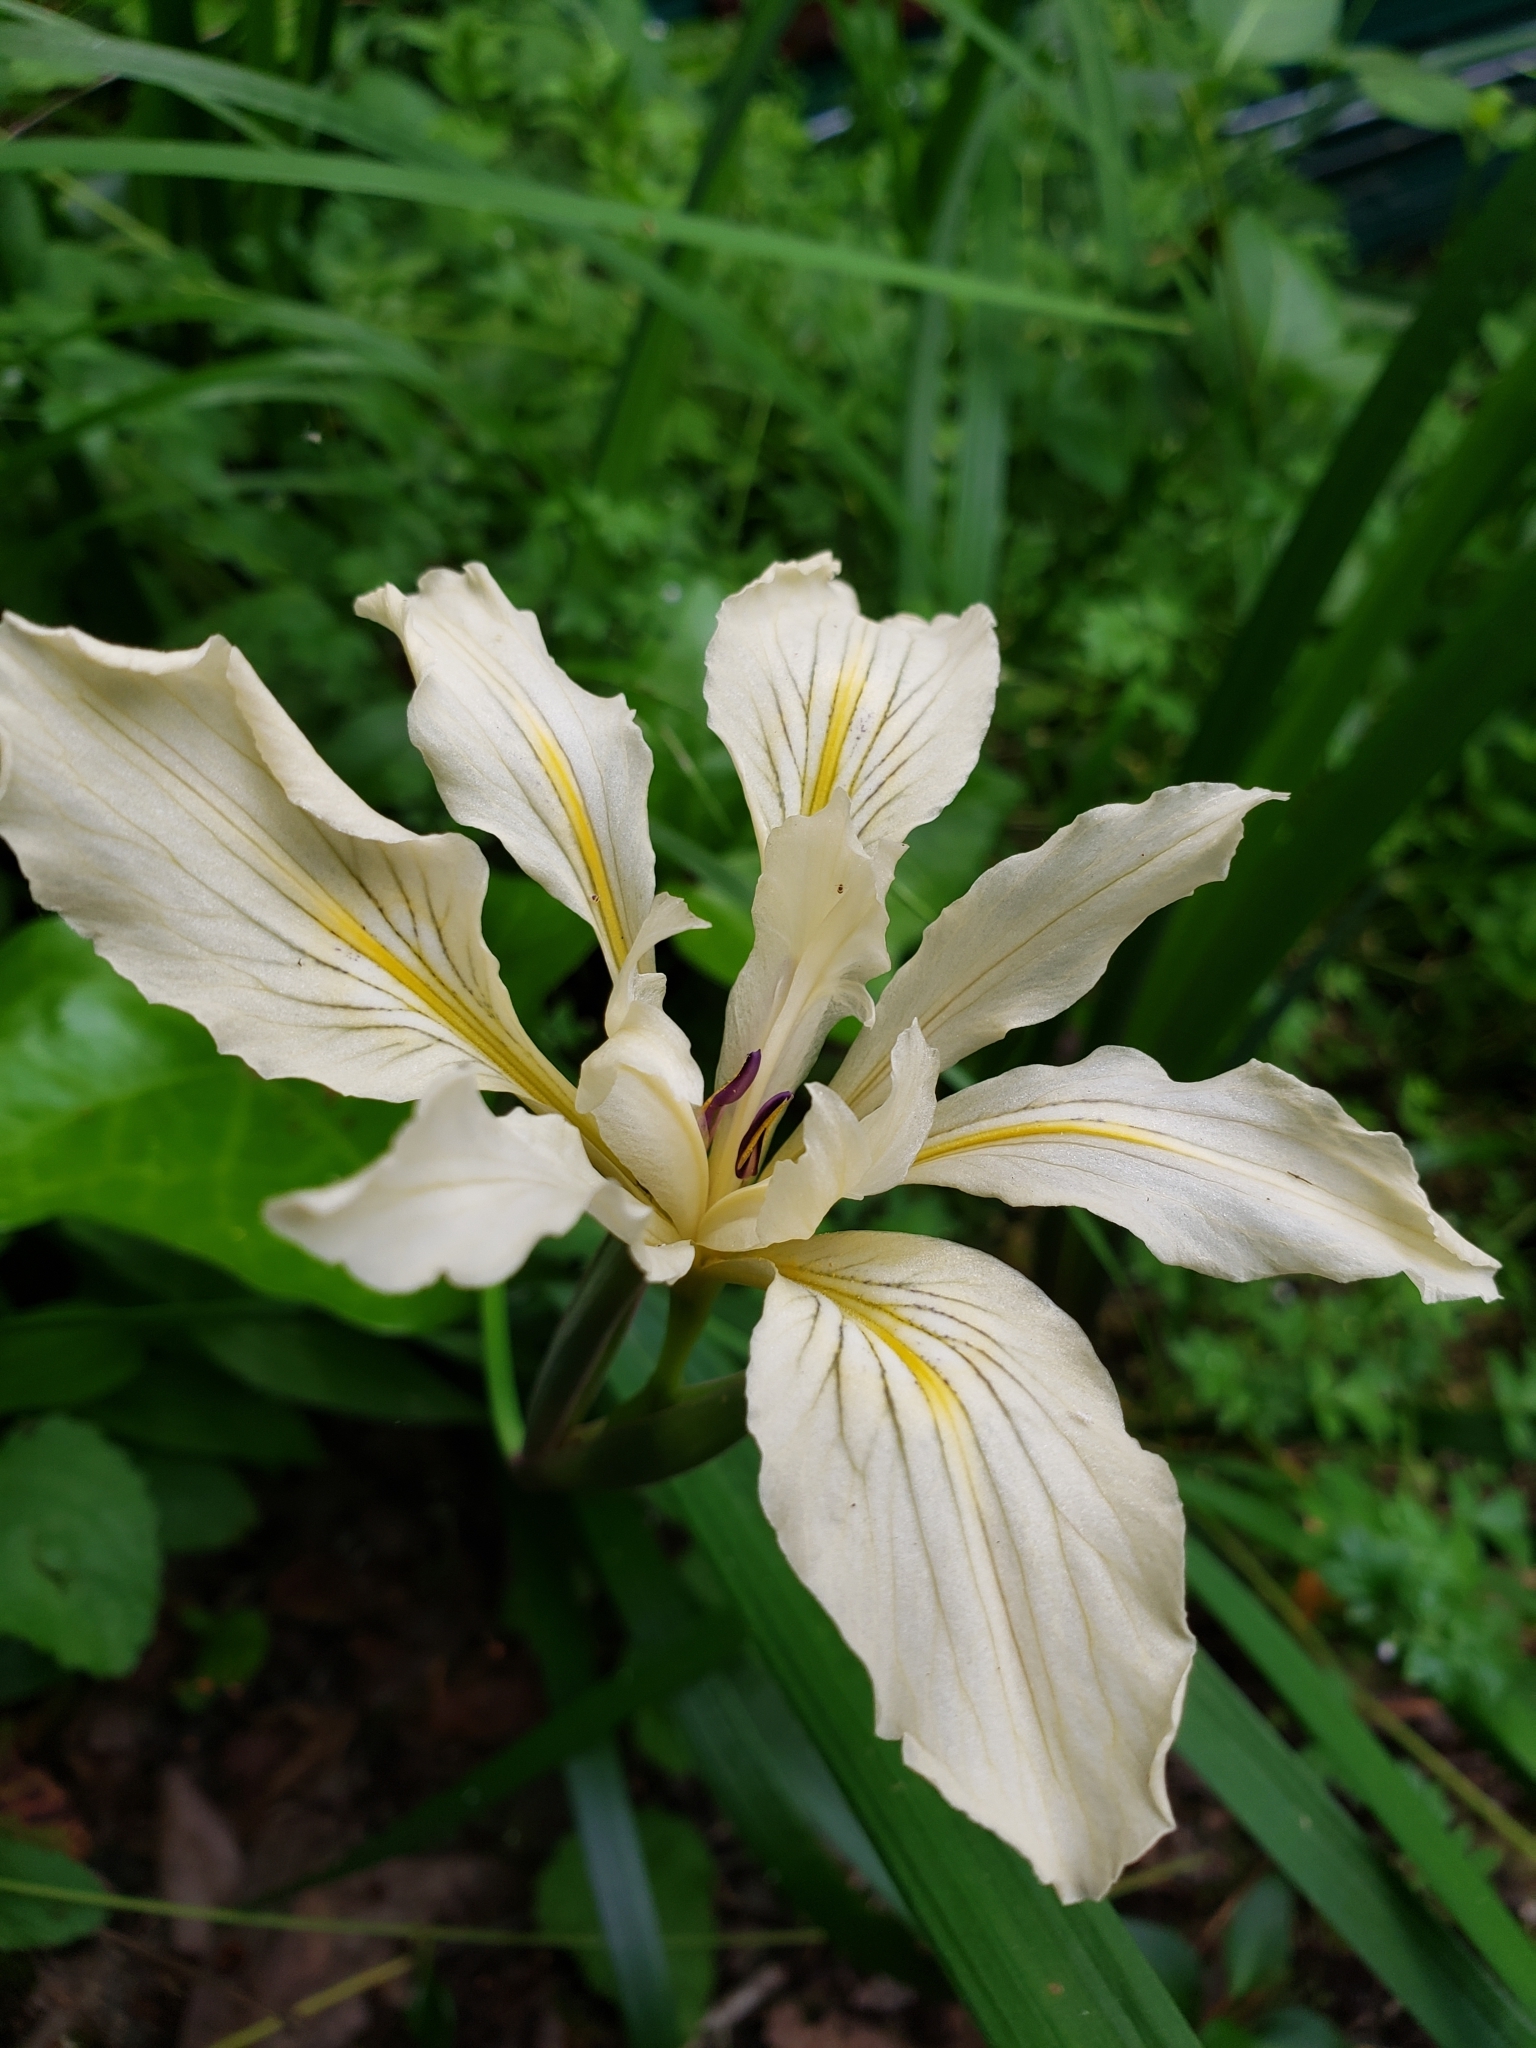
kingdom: Plantae
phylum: Tracheophyta
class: Liliopsida
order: Asparagales
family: Iridaceae
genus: Iris
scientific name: Iris douglasiana
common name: Marin iris
